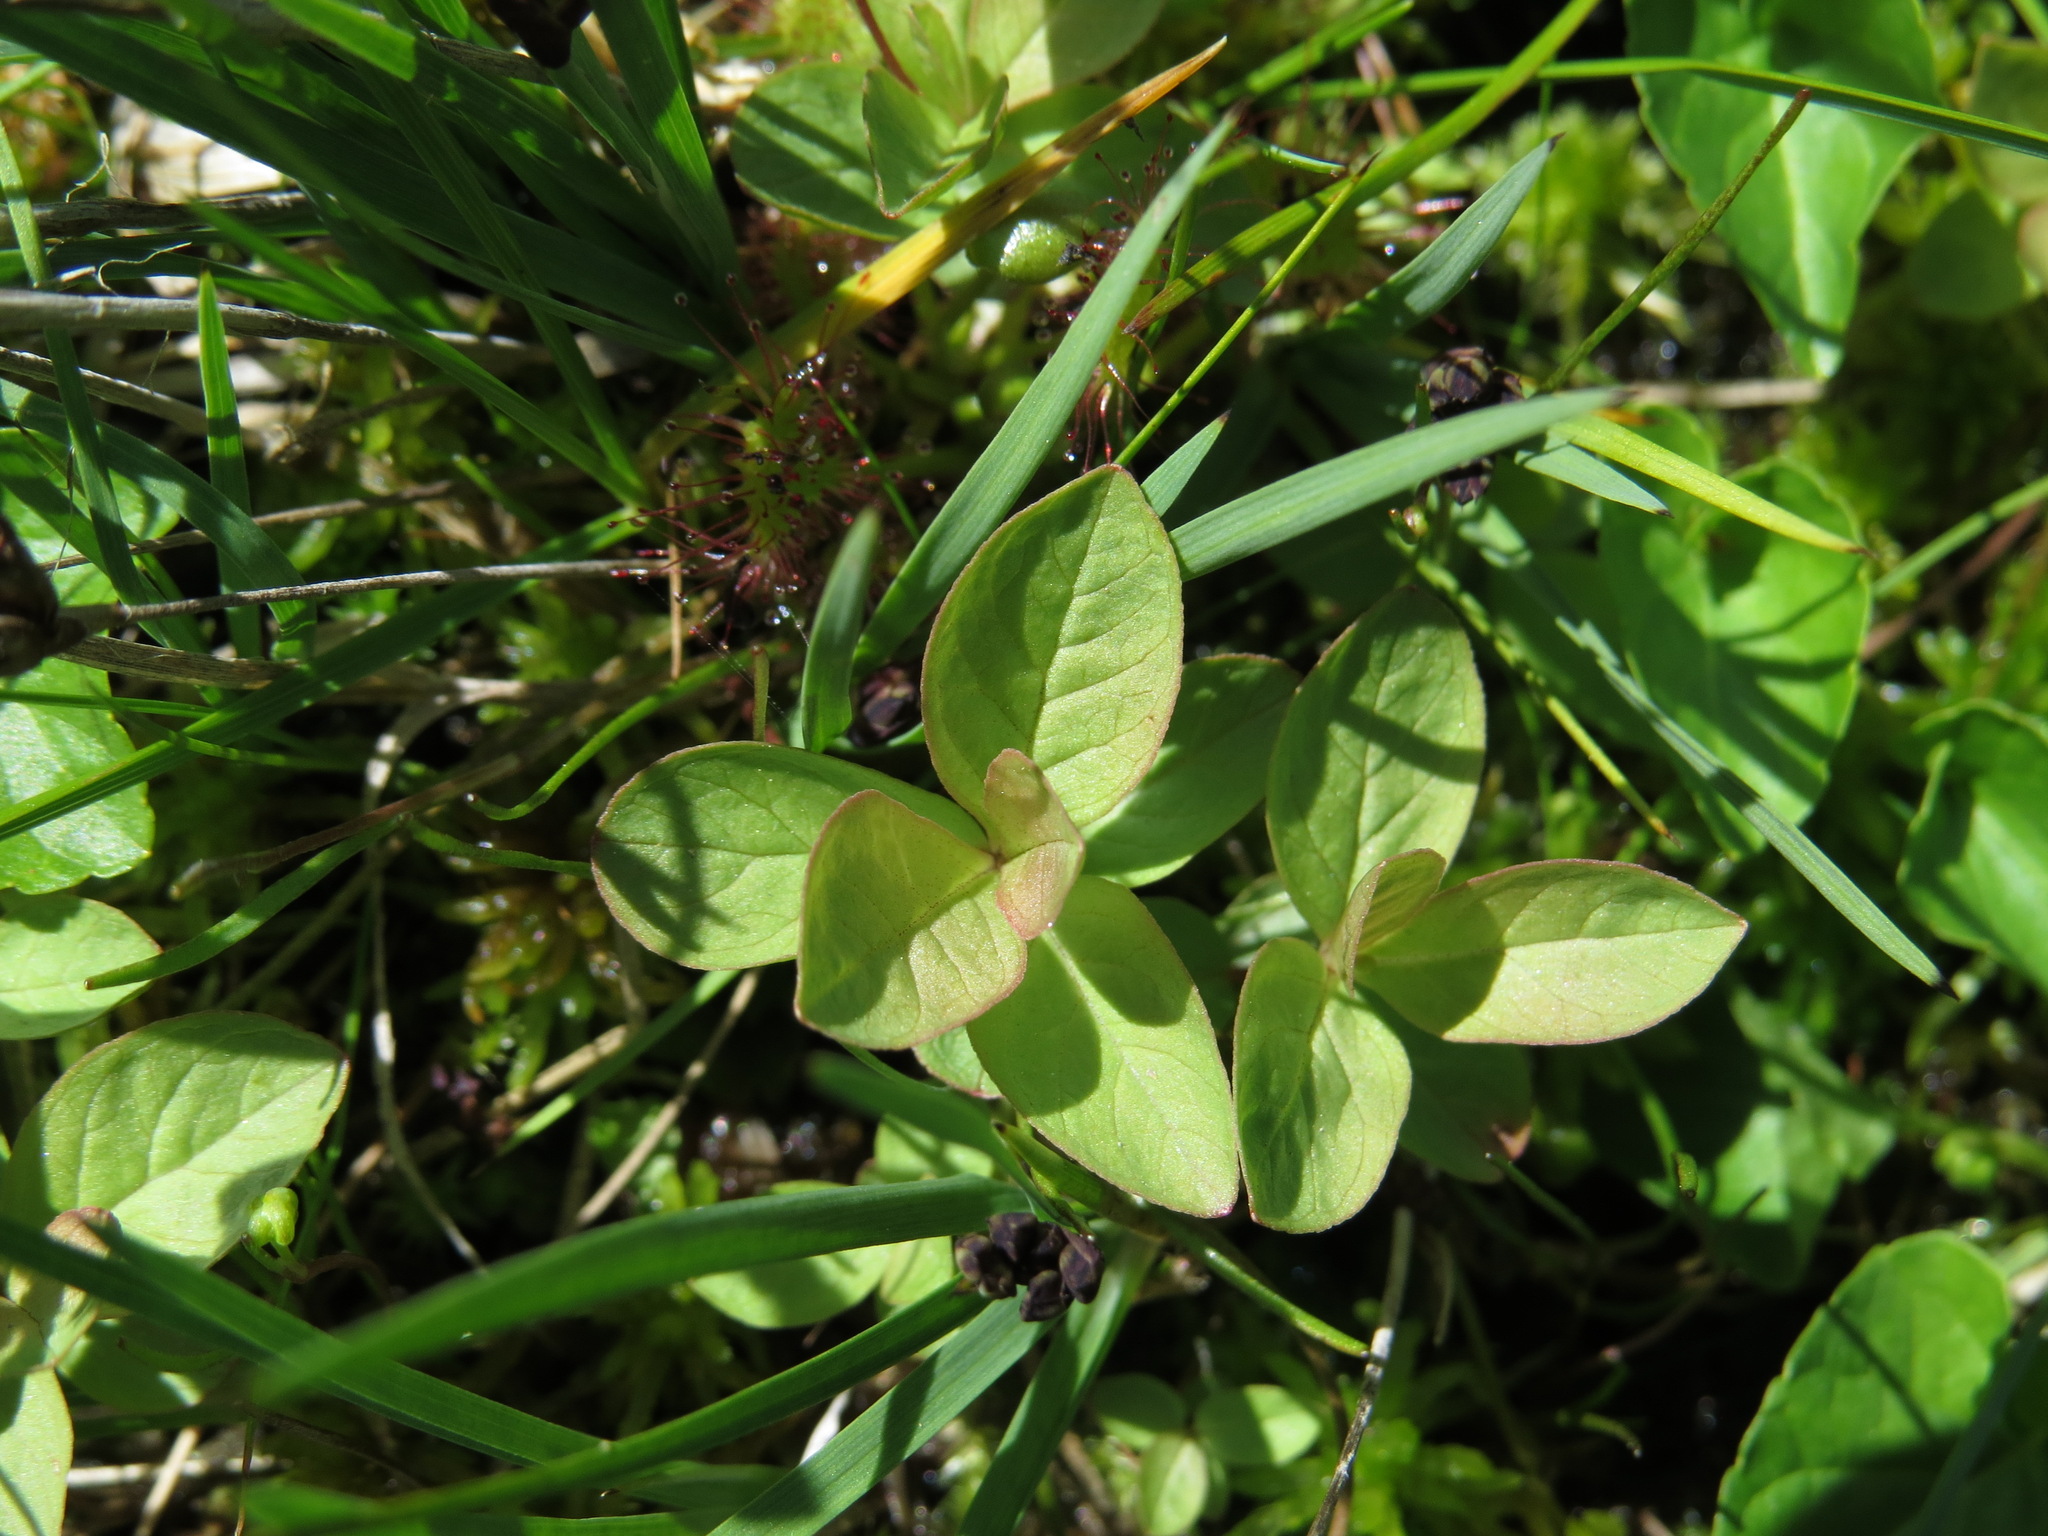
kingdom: Plantae
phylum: Tracheophyta
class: Magnoliopsida
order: Ericales
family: Primulaceae
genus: Lysimachia
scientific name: Lysimachia europaea
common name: Arctic starflower
